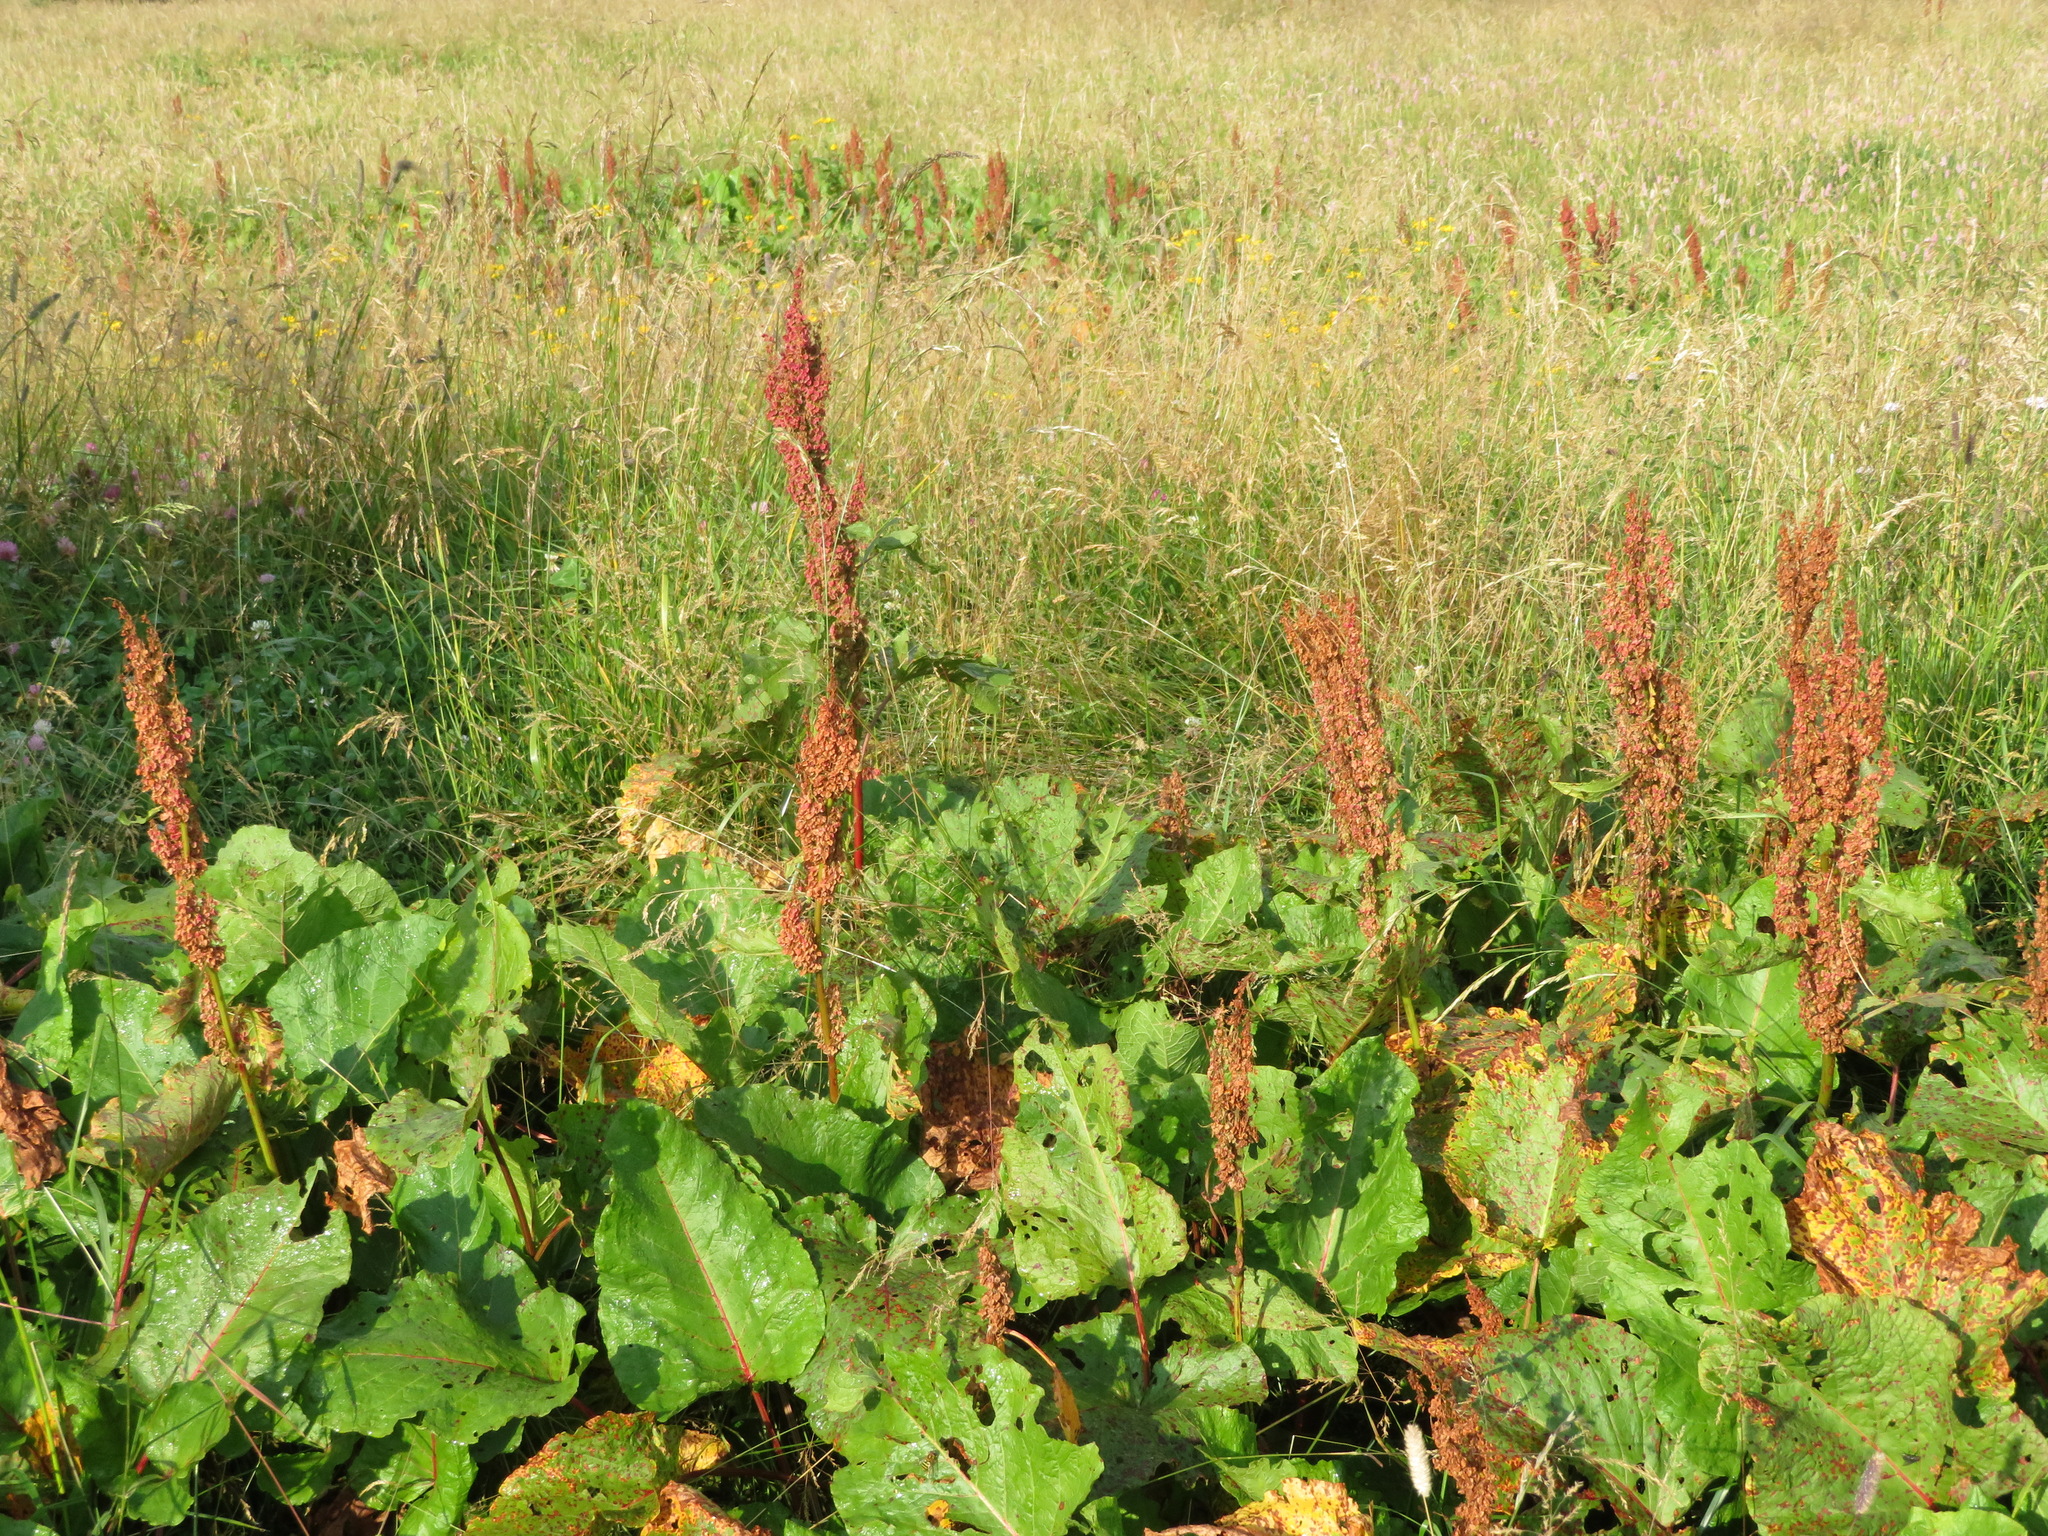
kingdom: Plantae
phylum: Tracheophyta
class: Magnoliopsida
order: Caryophyllales
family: Polygonaceae
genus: Rumex
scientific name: Rumex alpinus
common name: Alpine dock
